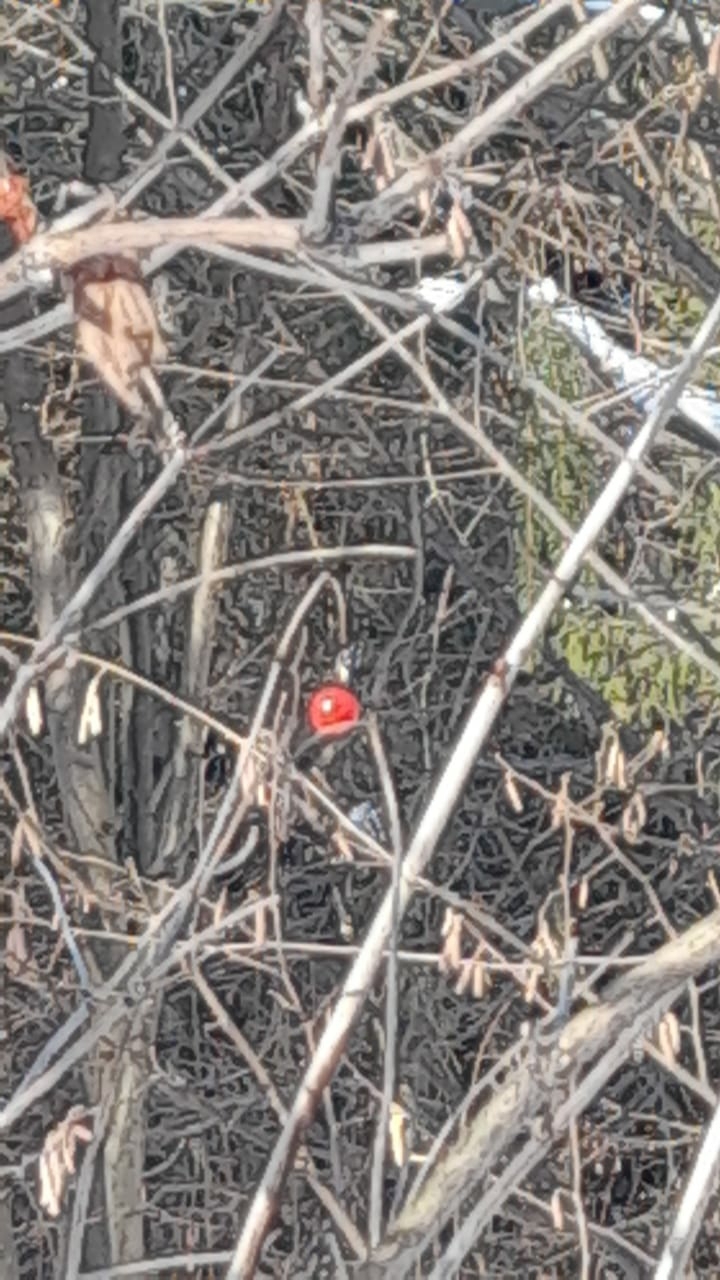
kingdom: Plantae
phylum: Tracheophyta
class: Magnoliopsida
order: Dipsacales
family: Viburnaceae
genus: Viburnum
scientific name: Viburnum opulus
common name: Guelder-rose
